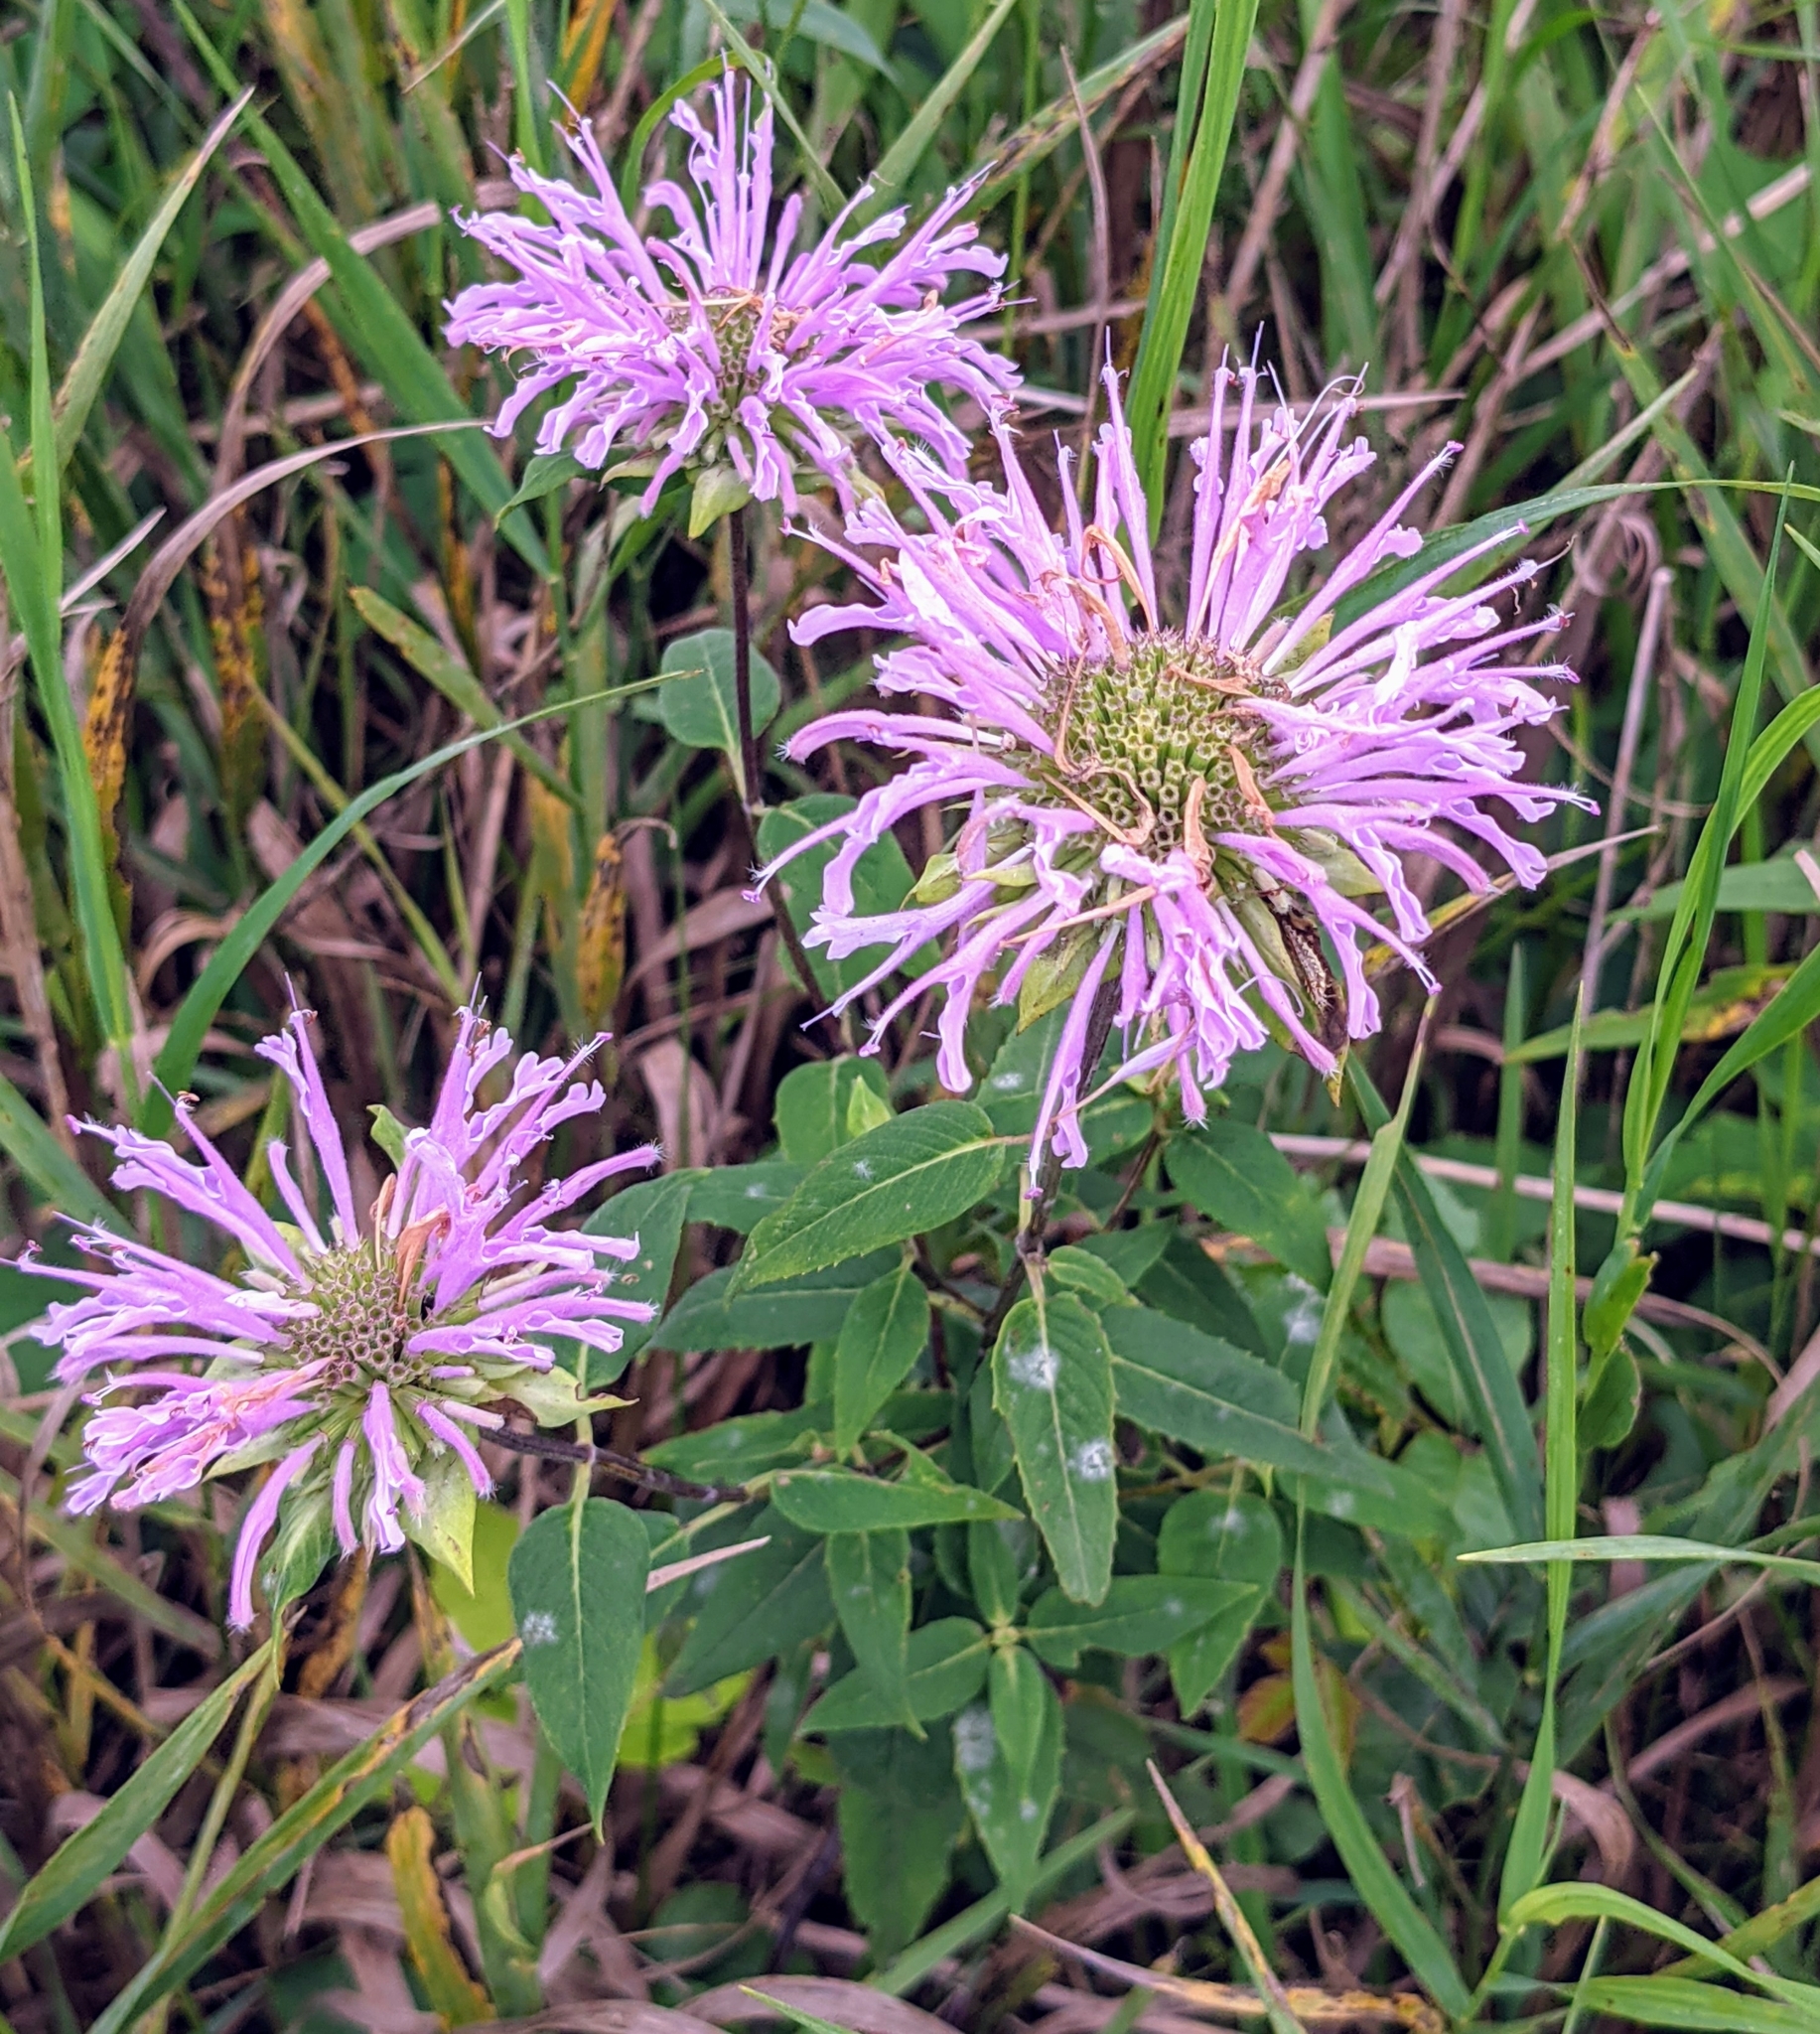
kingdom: Plantae
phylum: Tracheophyta
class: Magnoliopsida
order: Lamiales
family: Lamiaceae
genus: Monarda
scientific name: Monarda fistulosa
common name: Purple beebalm
